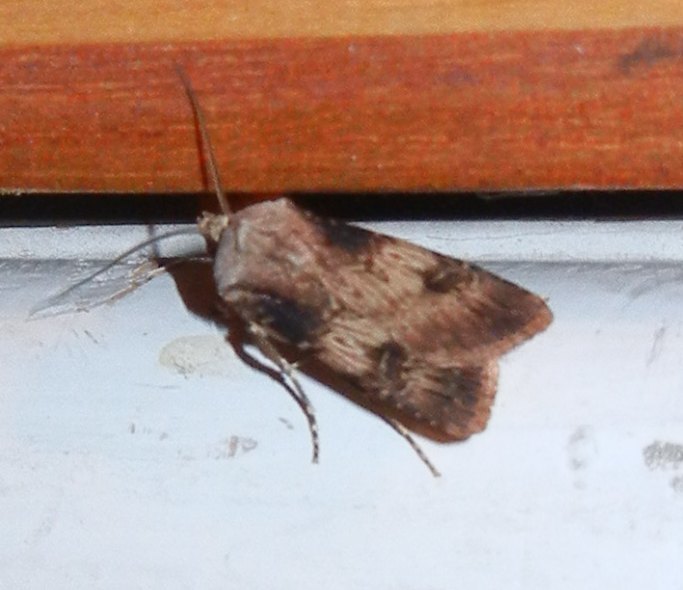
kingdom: Animalia
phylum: Arthropoda
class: Insecta
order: Lepidoptera
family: Noctuidae
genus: Agrotis
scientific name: Agrotis puta
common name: Shuttle-shaped dart
